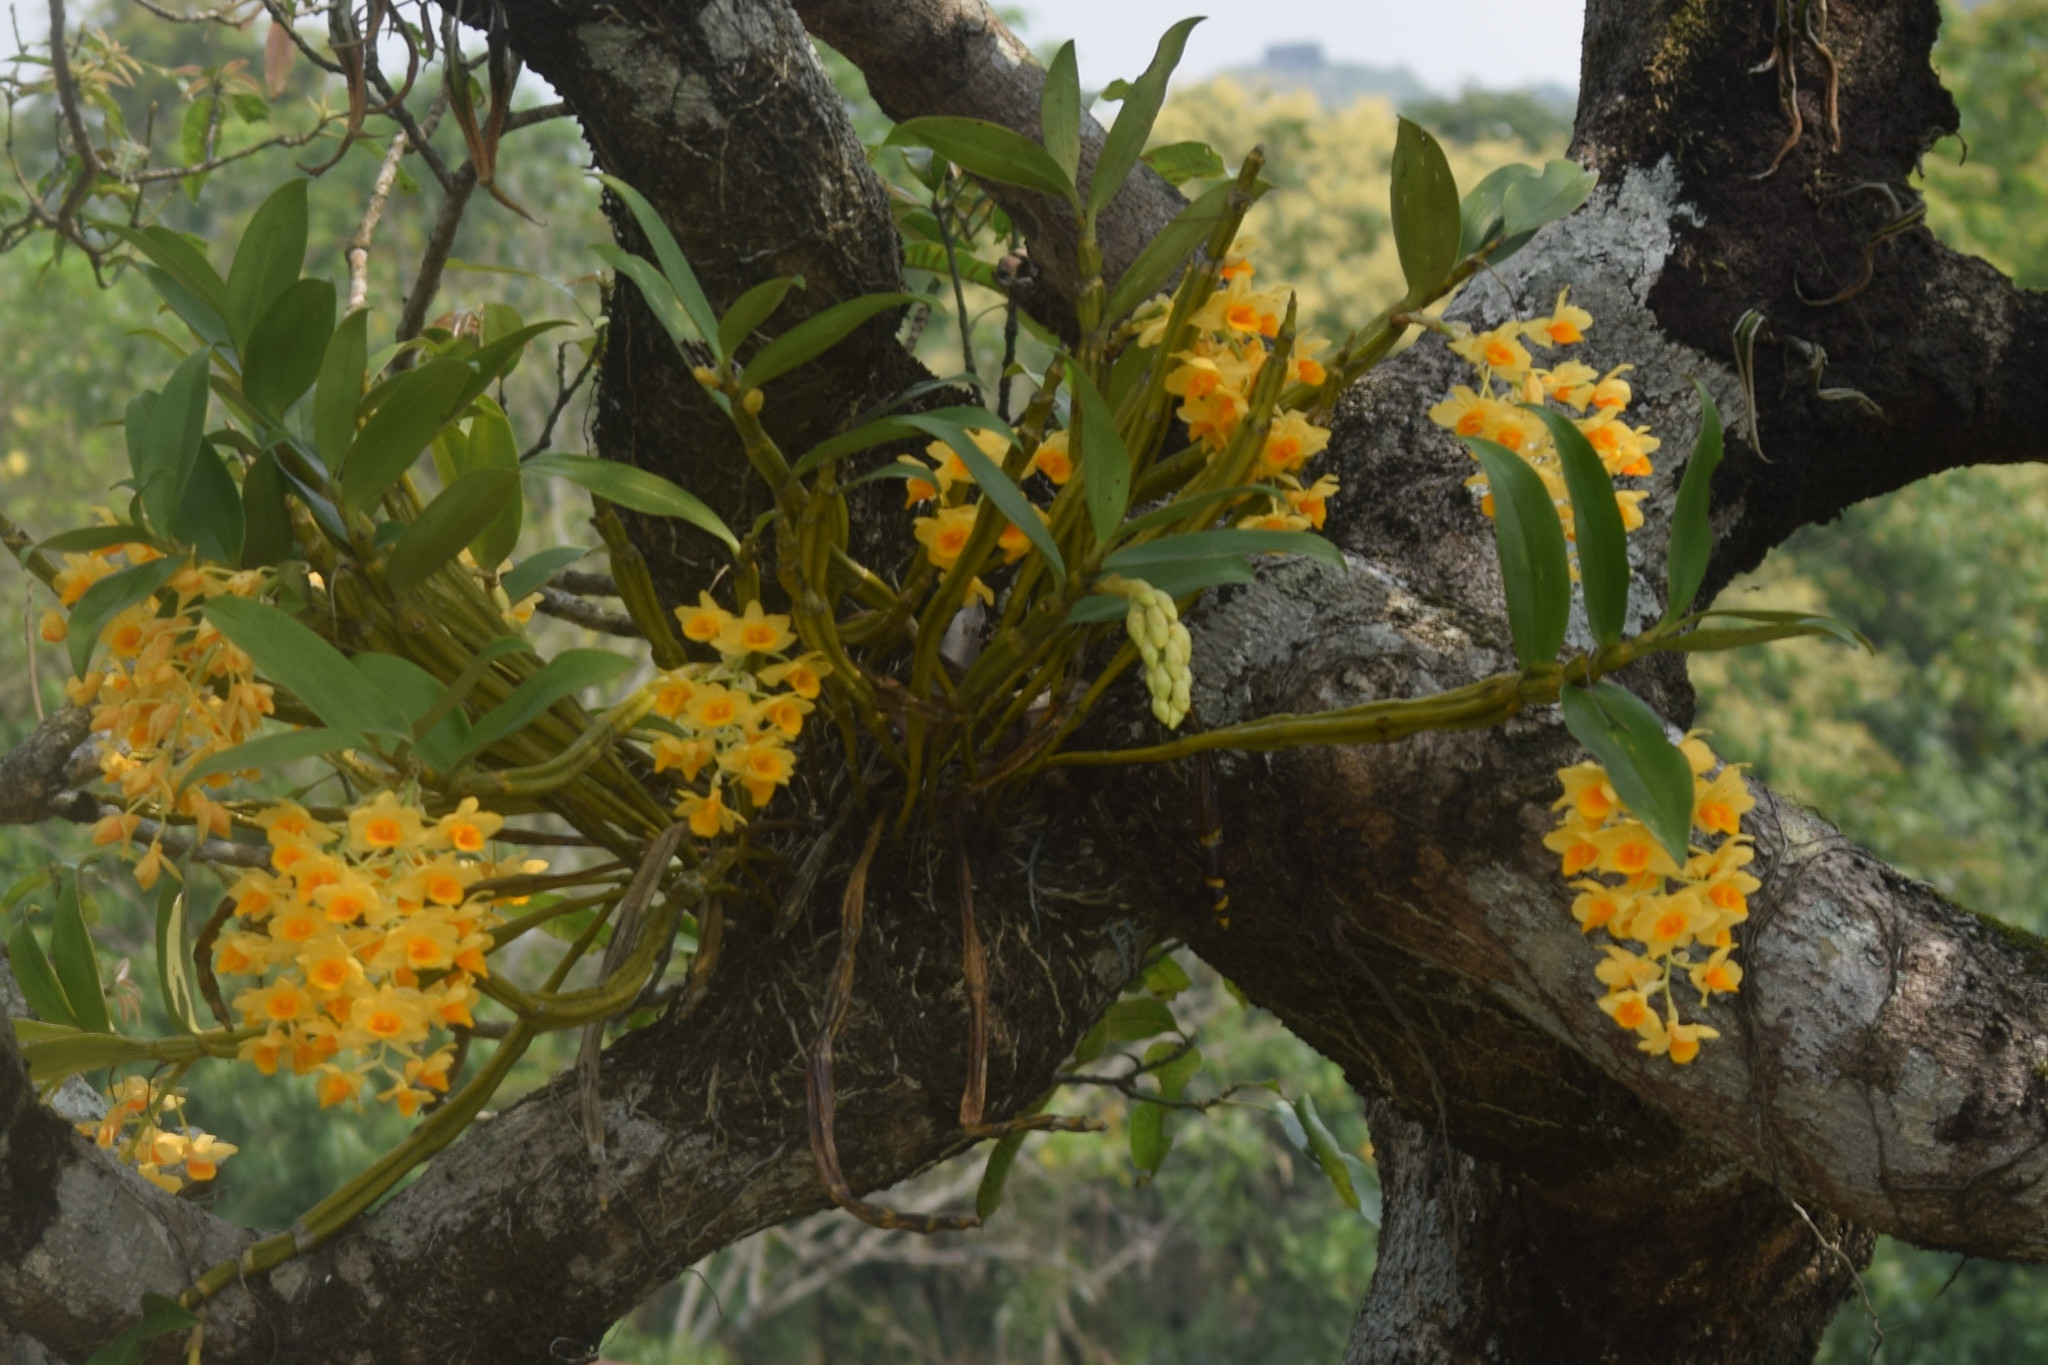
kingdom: Plantae
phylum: Tracheophyta
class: Liliopsida
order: Asparagales
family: Orchidaceae
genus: Dendrobium
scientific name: Dendrobium densiflorum
